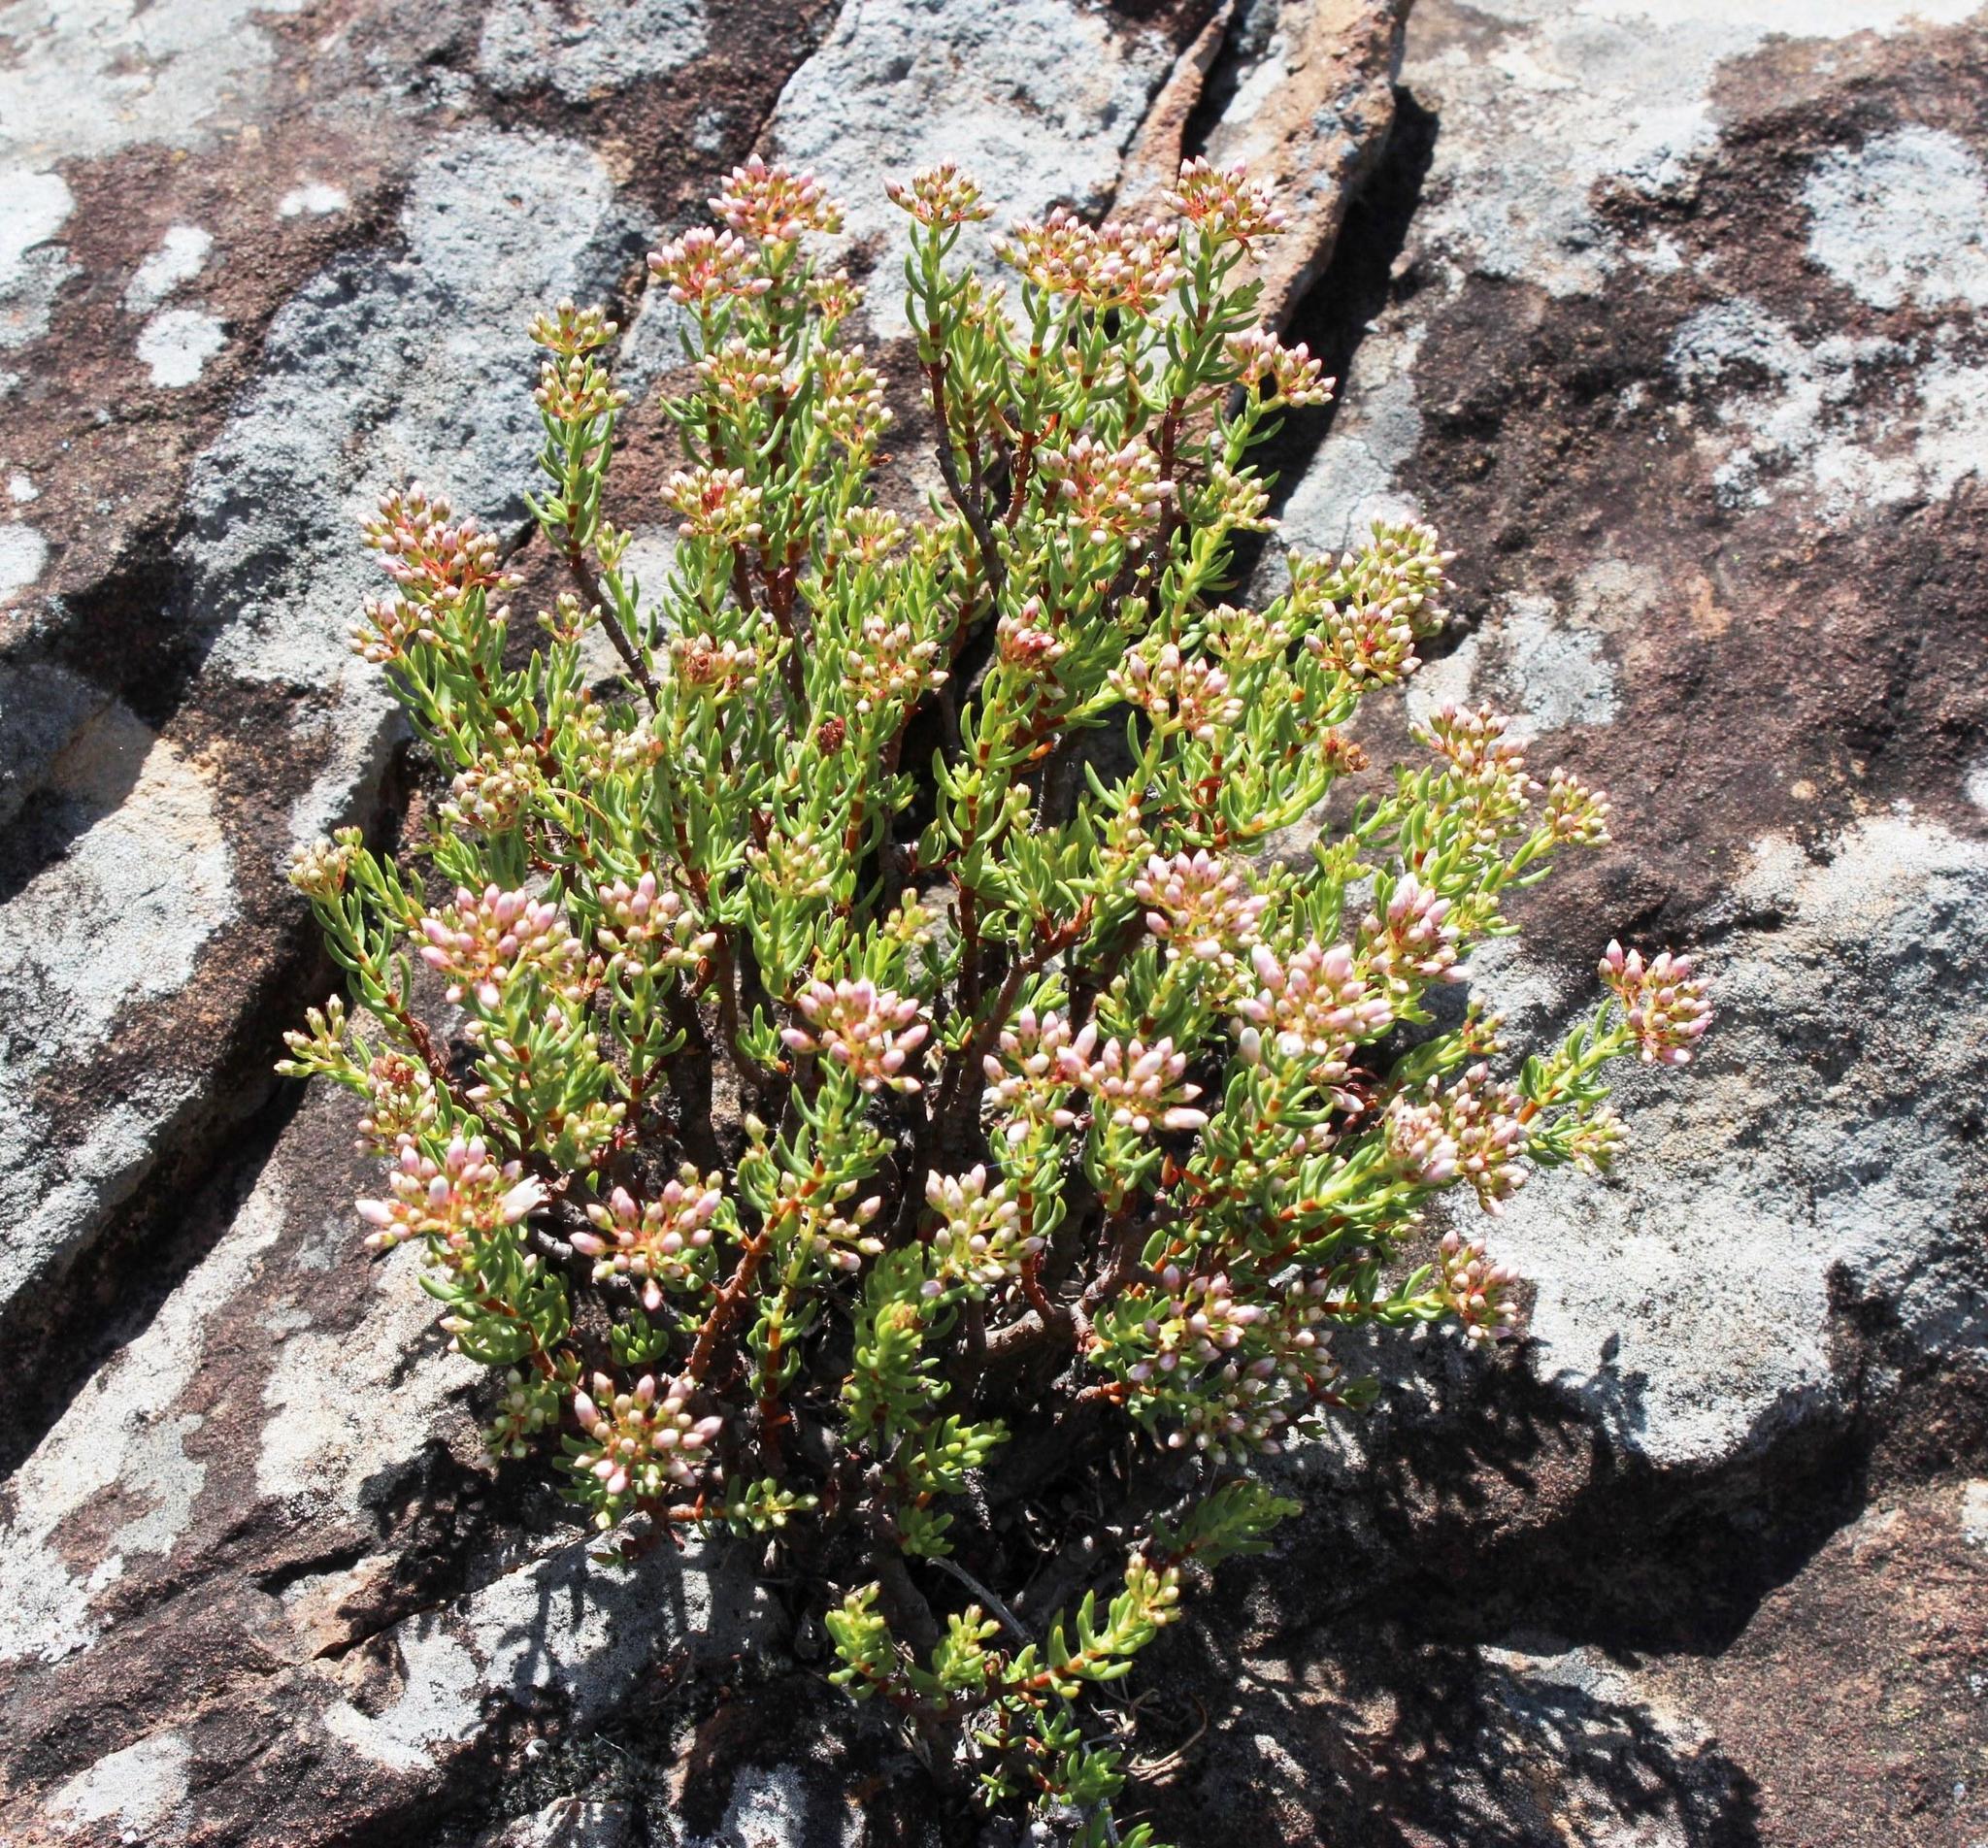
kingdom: Plantae
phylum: Tracheophyta
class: Magnoliopsida
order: Saxifragales
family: Crassulaceae
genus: Crassula
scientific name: Crassula tetragona
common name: Pygmyweed
